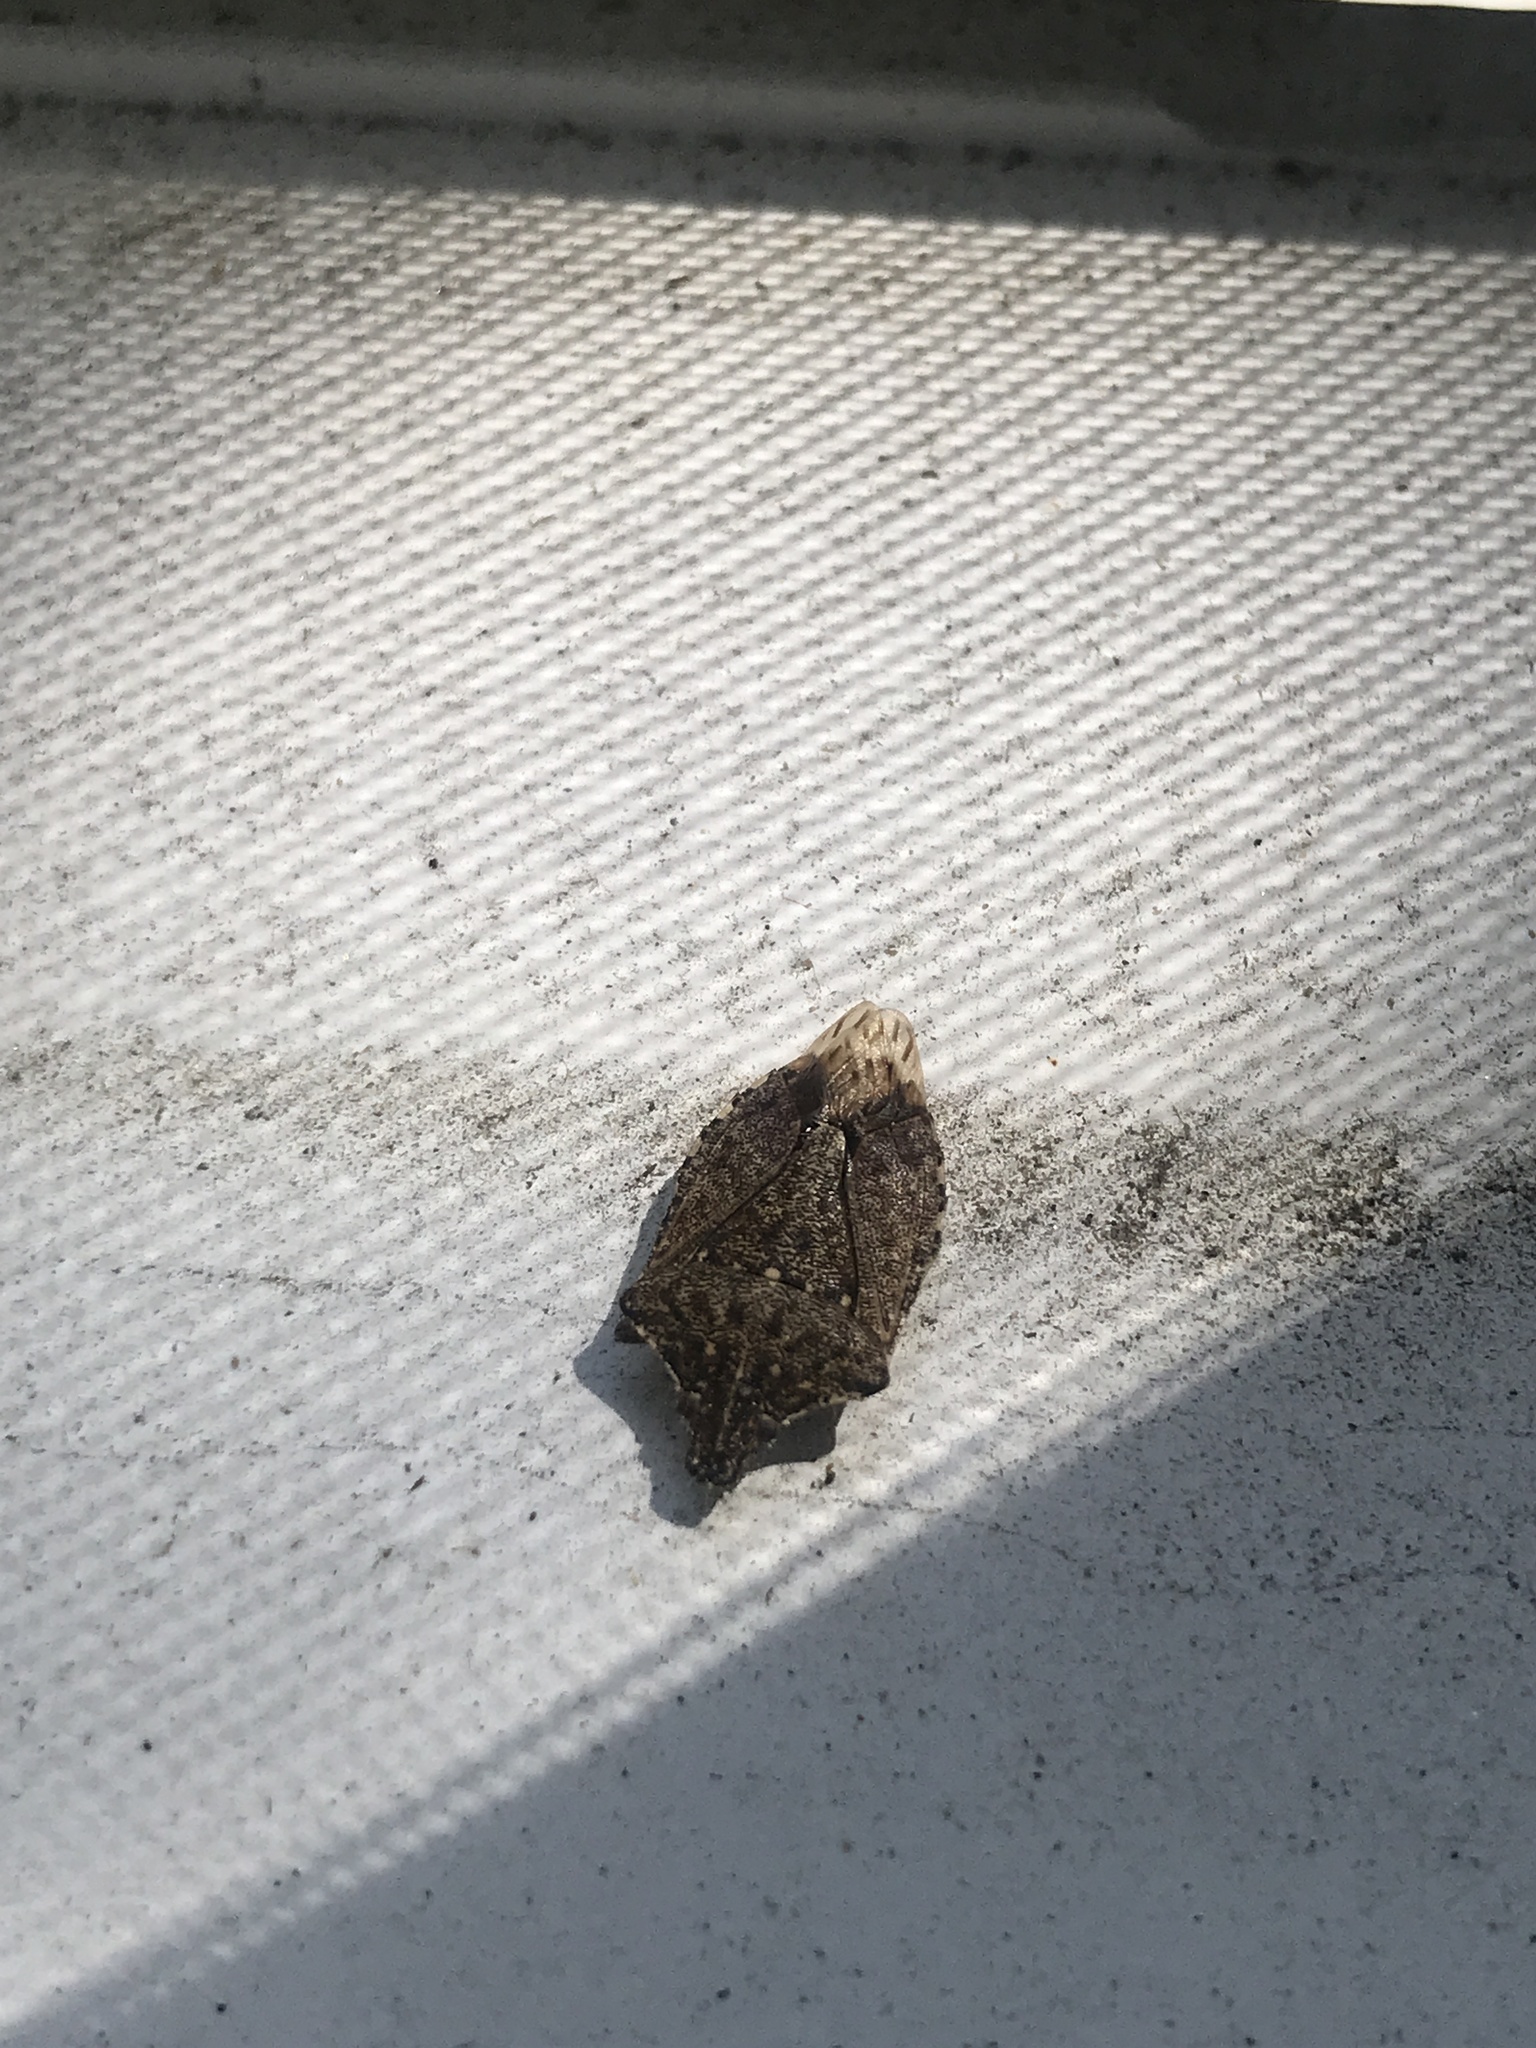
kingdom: Animalia
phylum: Arthropoda
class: Insecta
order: Hemiptera
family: Pentatomidae
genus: Halyomorpha
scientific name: Halyomorpha halys
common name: Brown marmorated stink bug
